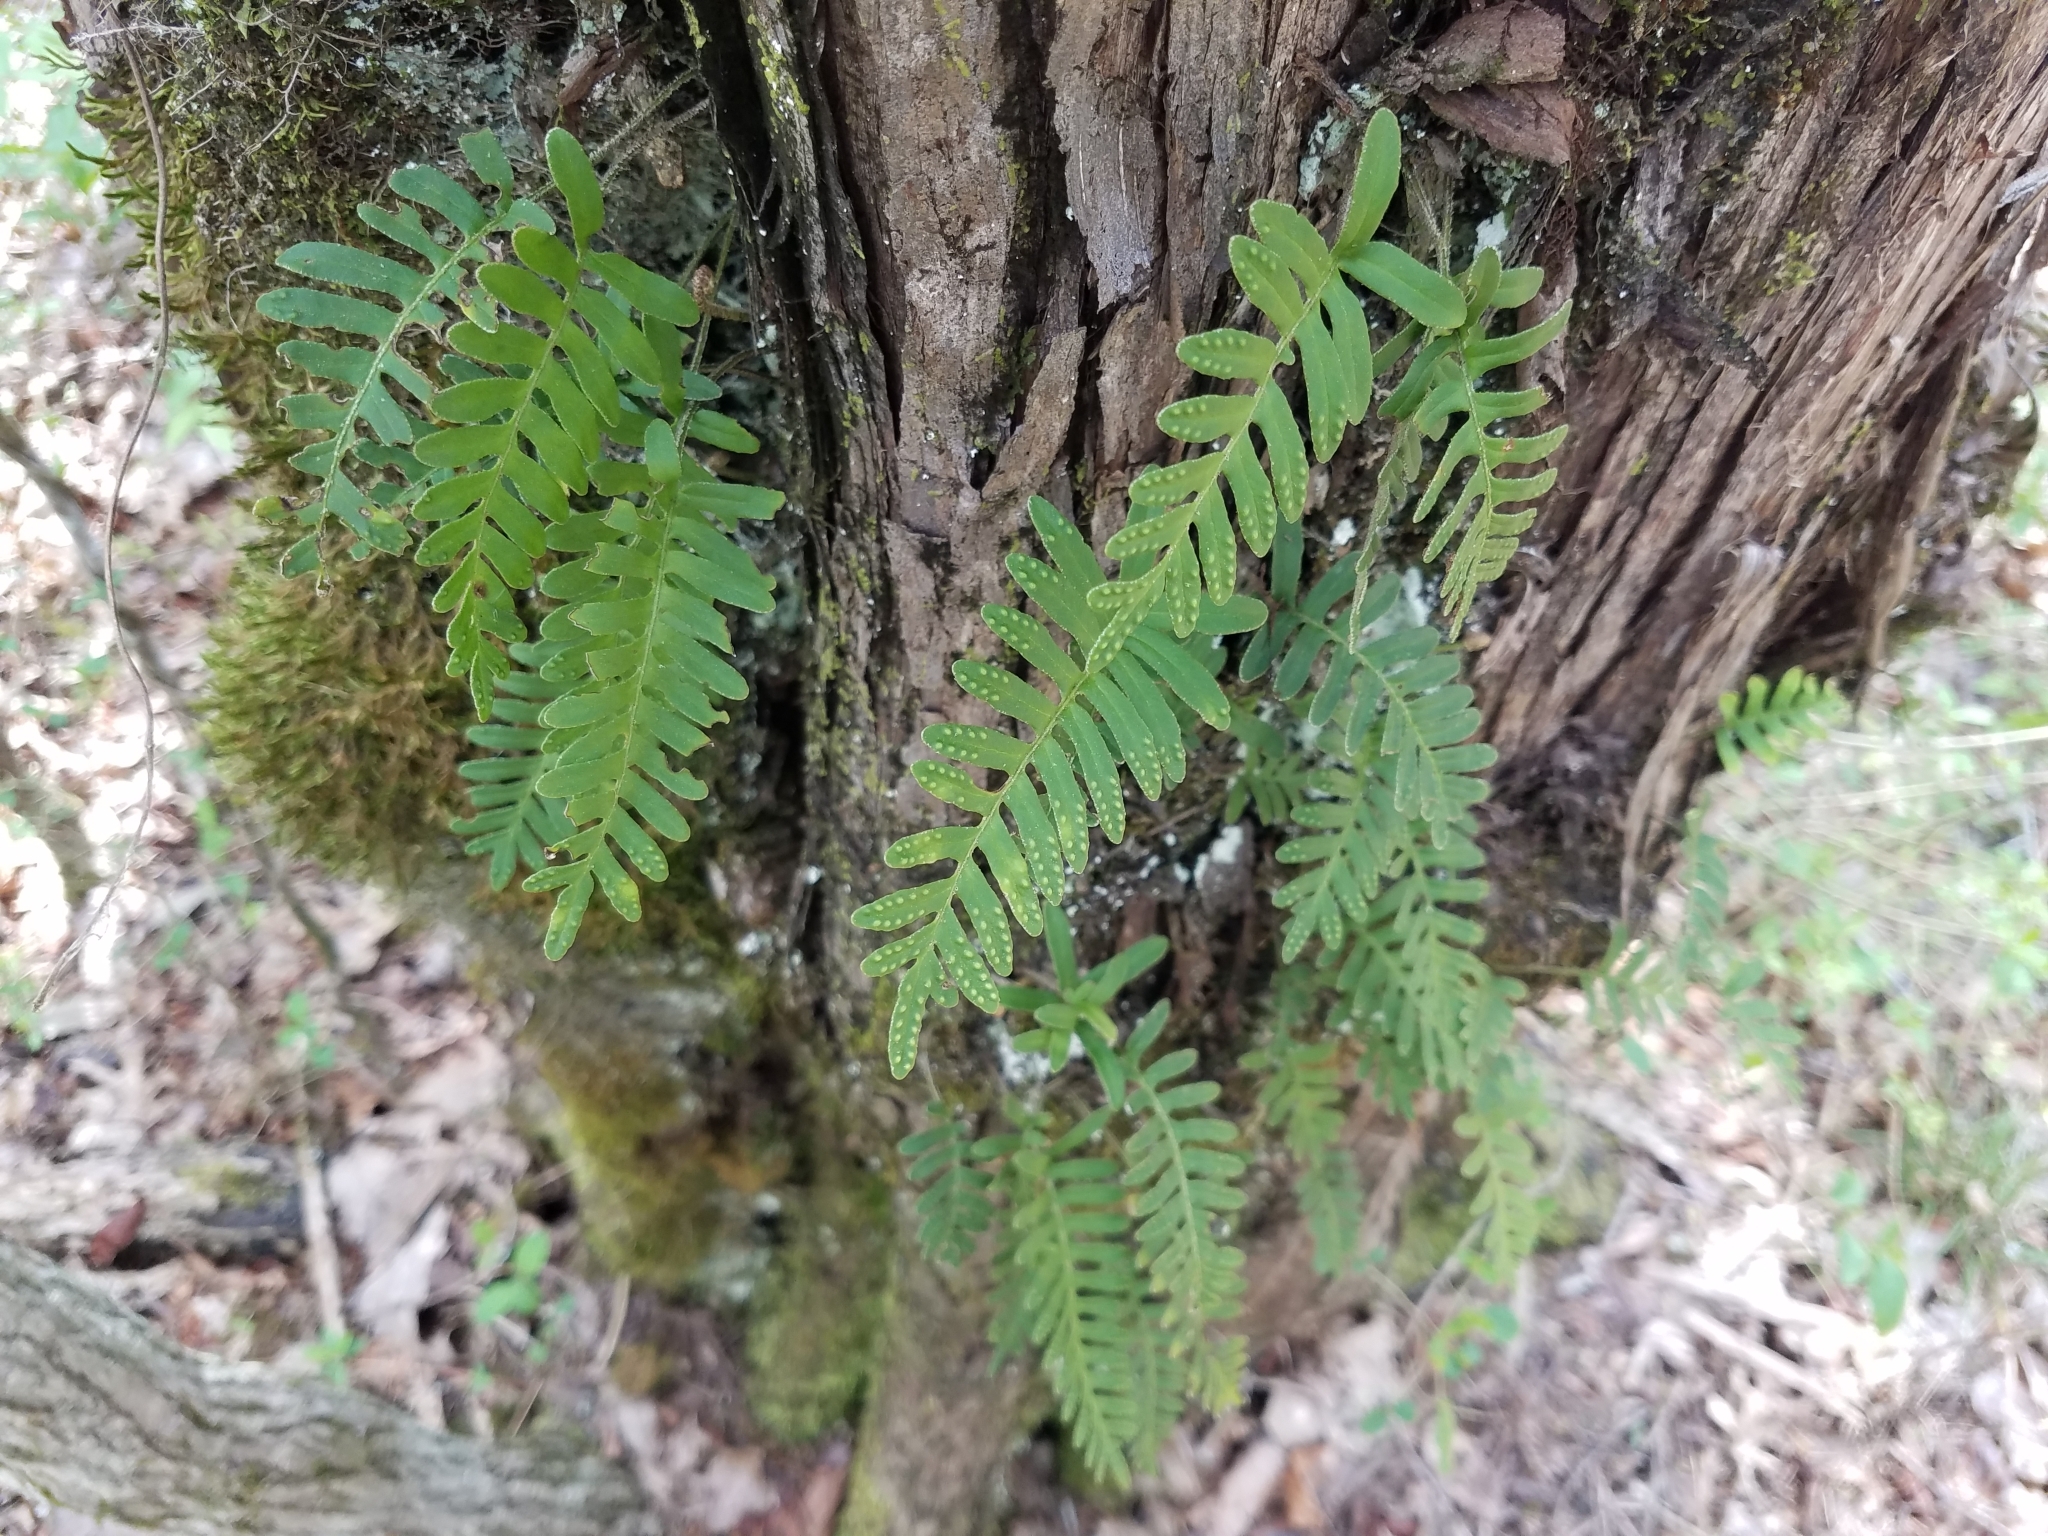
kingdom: Plantae
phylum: Tracheophyta
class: Polypodiopsida
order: Polypodiales
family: Polypodiaceae
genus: Pleopeltis
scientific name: Pleopeltis michauxiana
